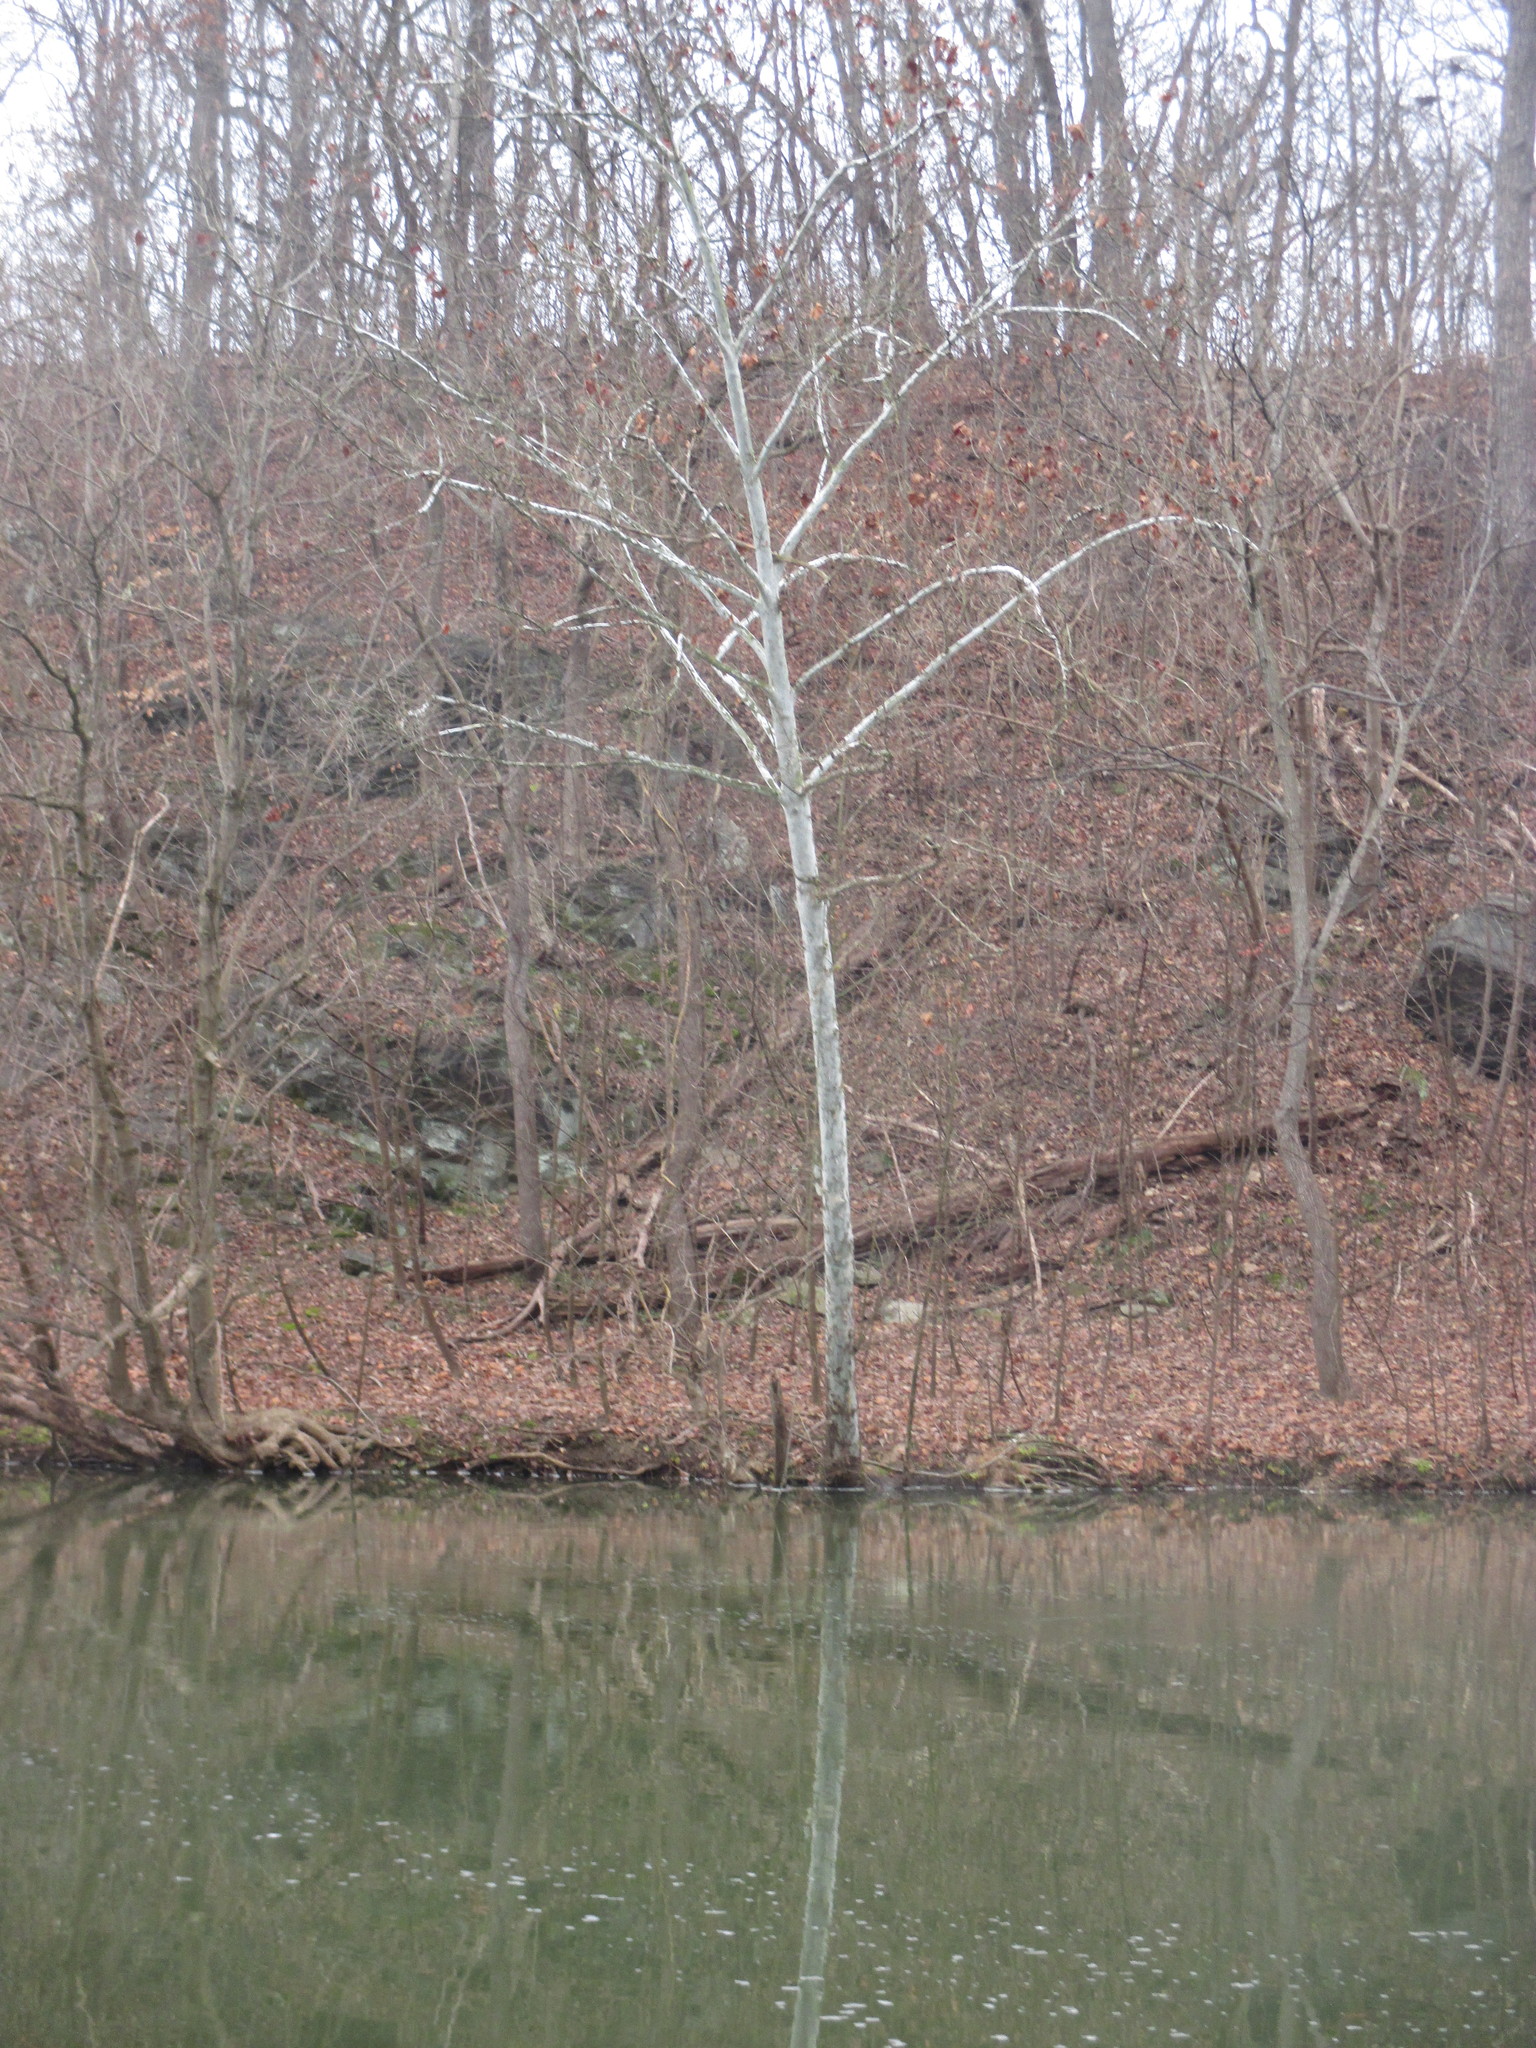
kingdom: Plantae
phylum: Tracheophyta
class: Magnoliopsida
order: Proteales
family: Platanaceae
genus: Platanus
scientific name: Platanus occidentalis
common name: American sycamore
